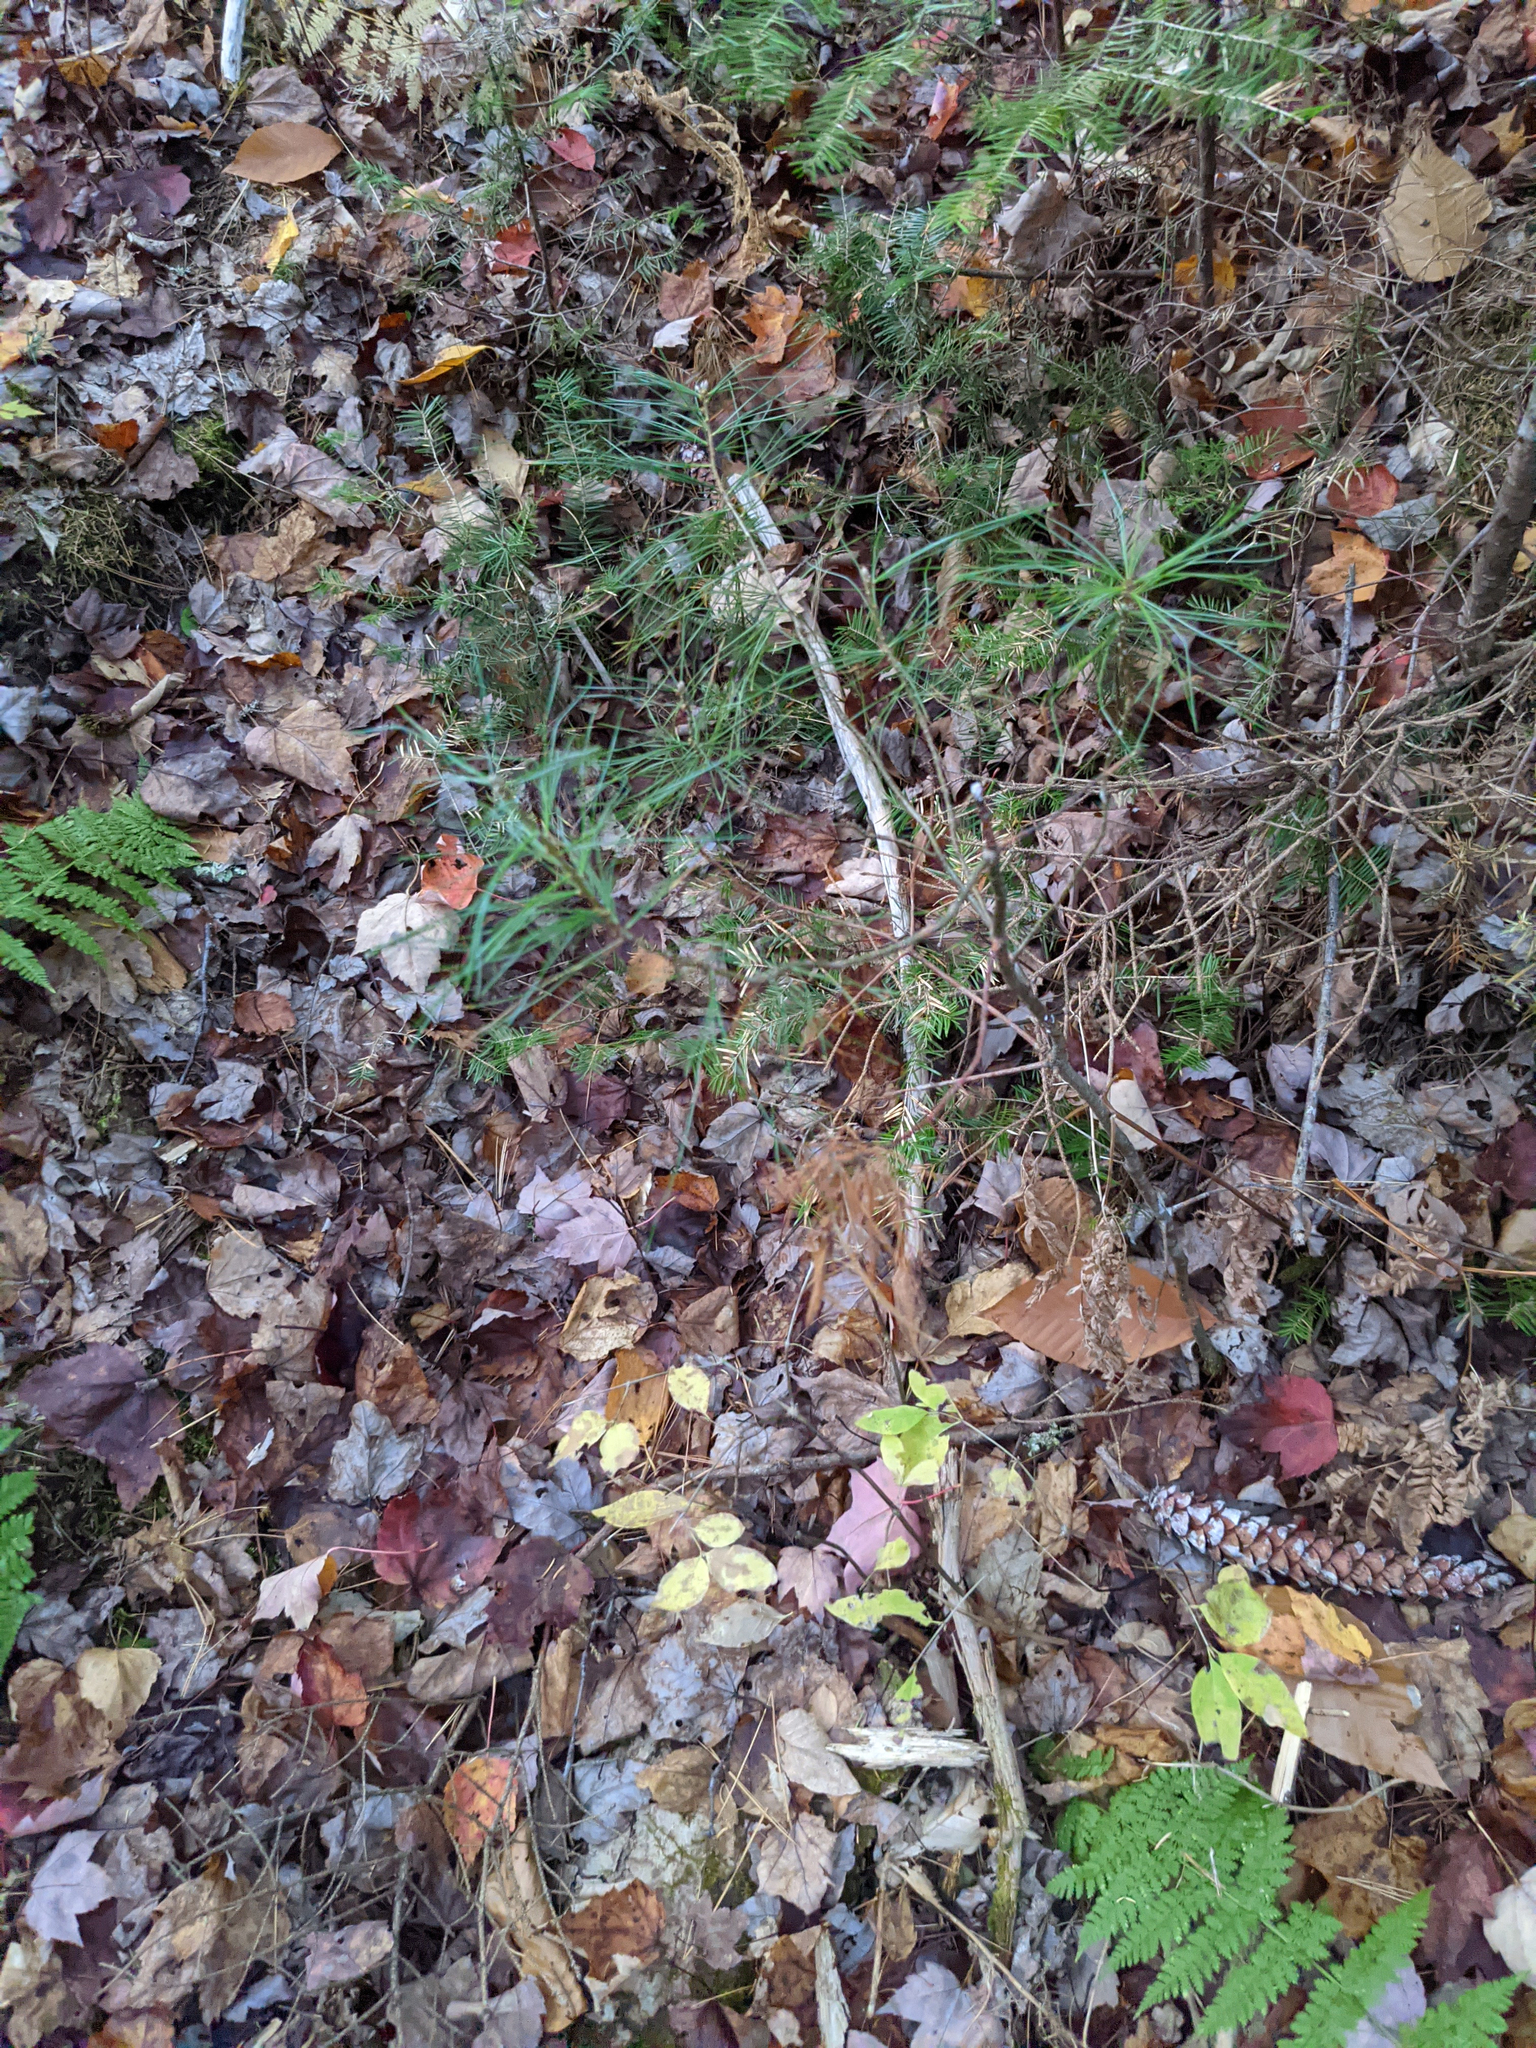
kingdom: Plantae
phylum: Tracheophyta
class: Pinopsida
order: Pinales
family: Pinaceae
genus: Pinus
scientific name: Pinus strobus
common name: Weymouth pine
